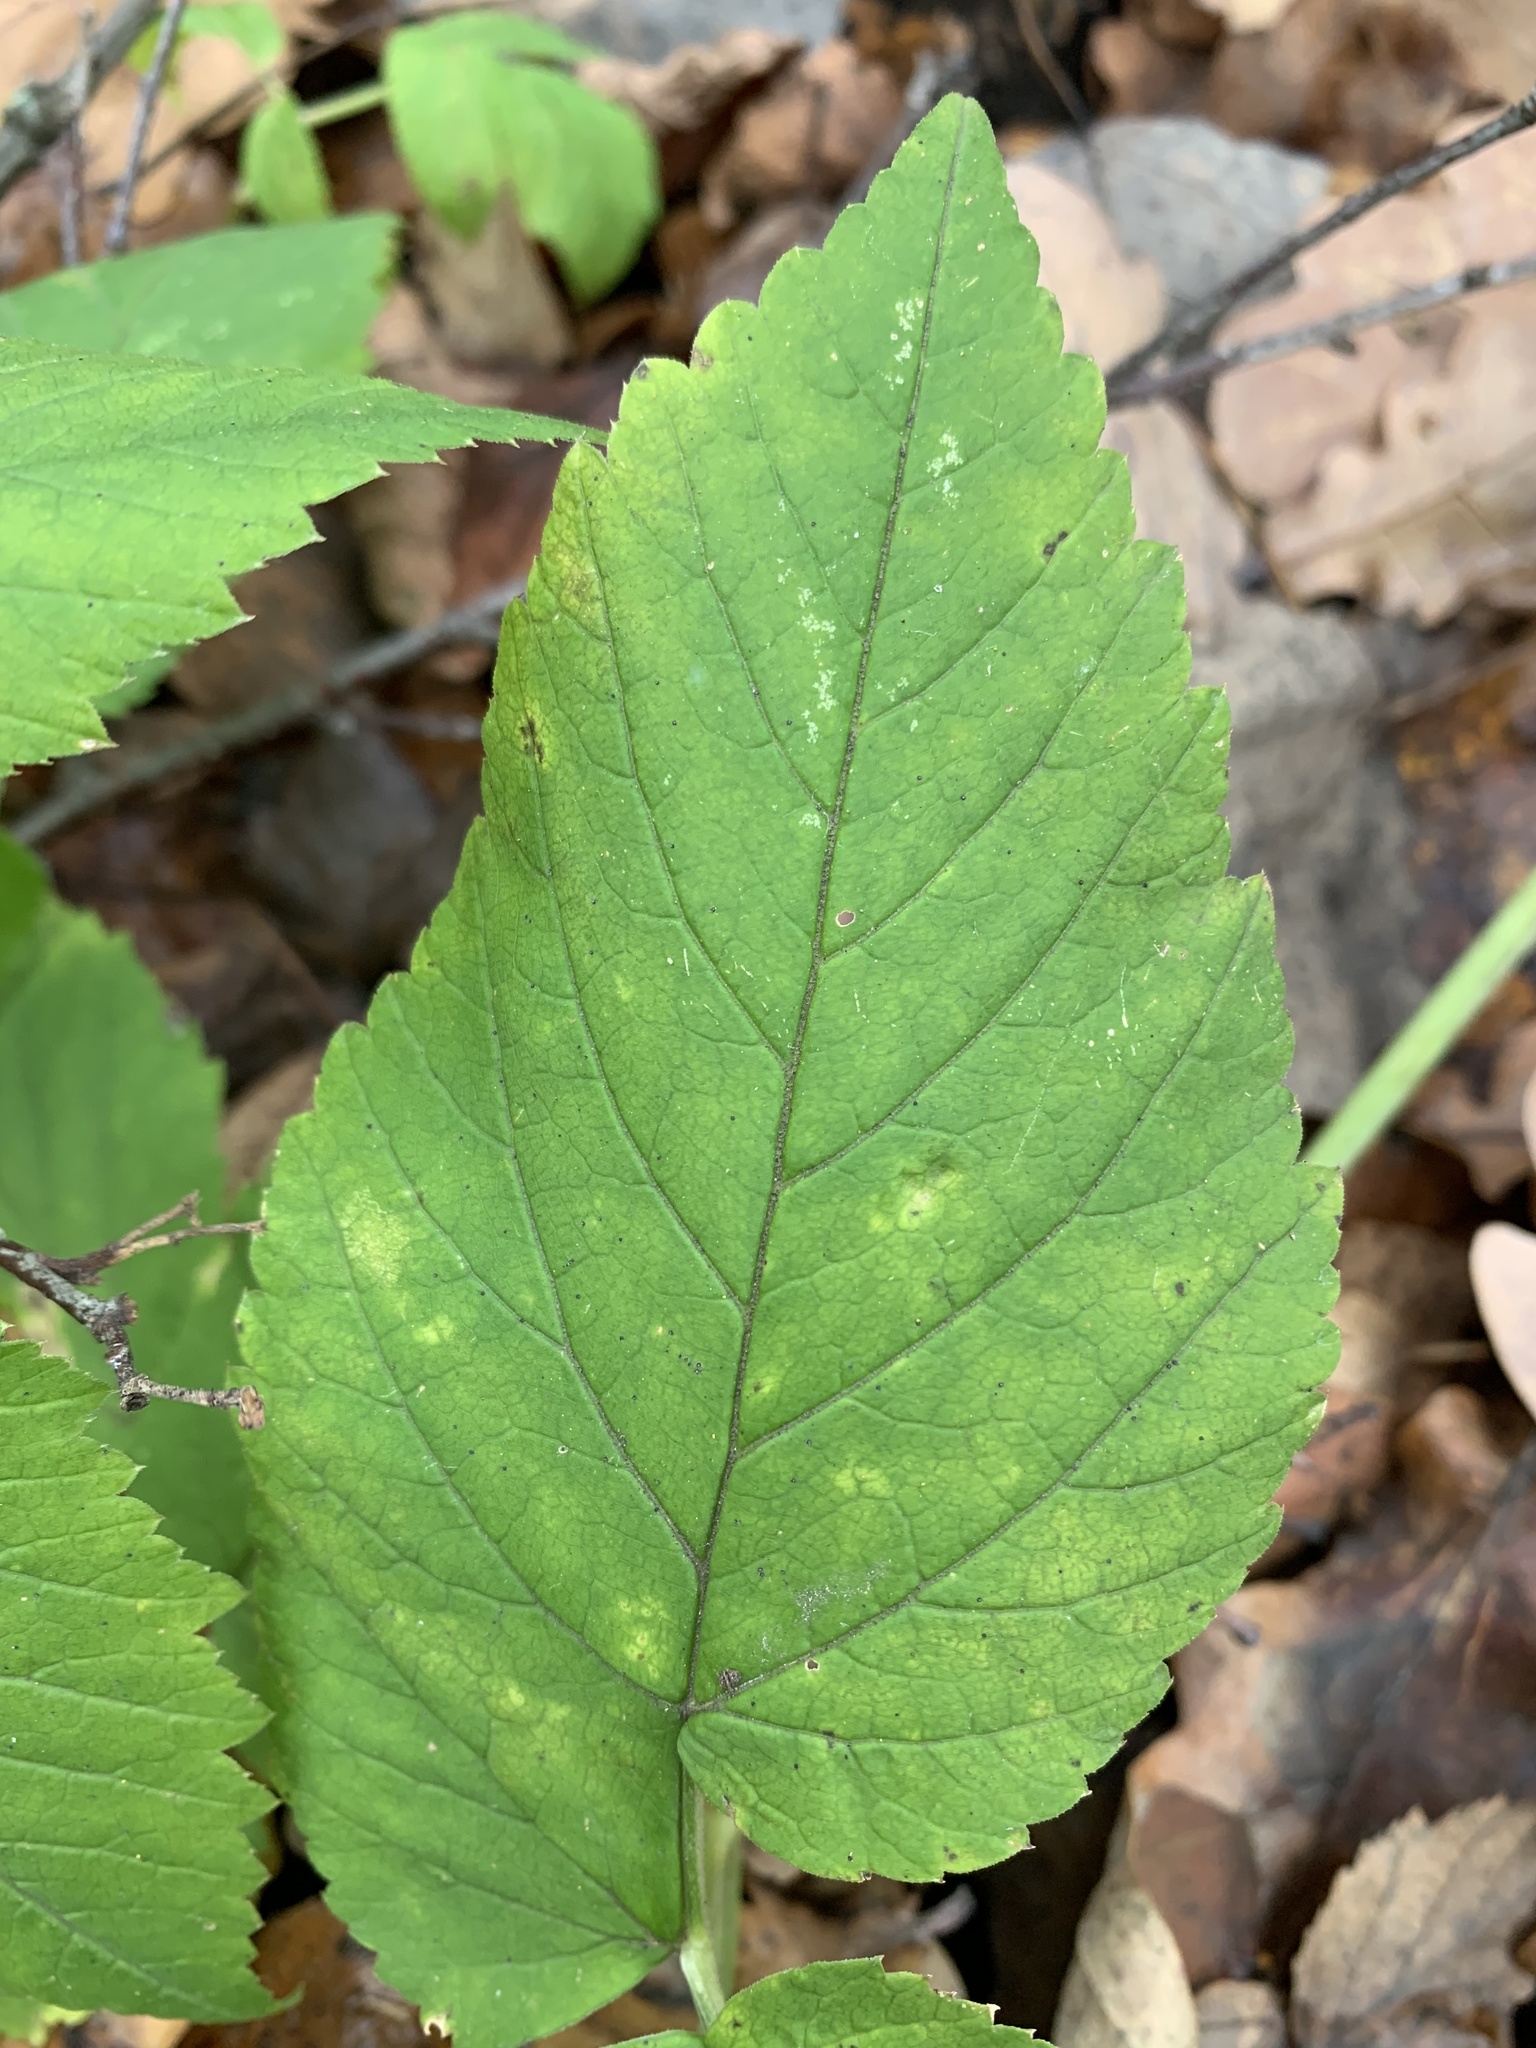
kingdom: Plantae
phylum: Tracheophyta
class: Magnoliopsida
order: Apiales
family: Apiaceae
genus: Aegopodium
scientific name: Aegopodium podagraria
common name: Ground-elder
